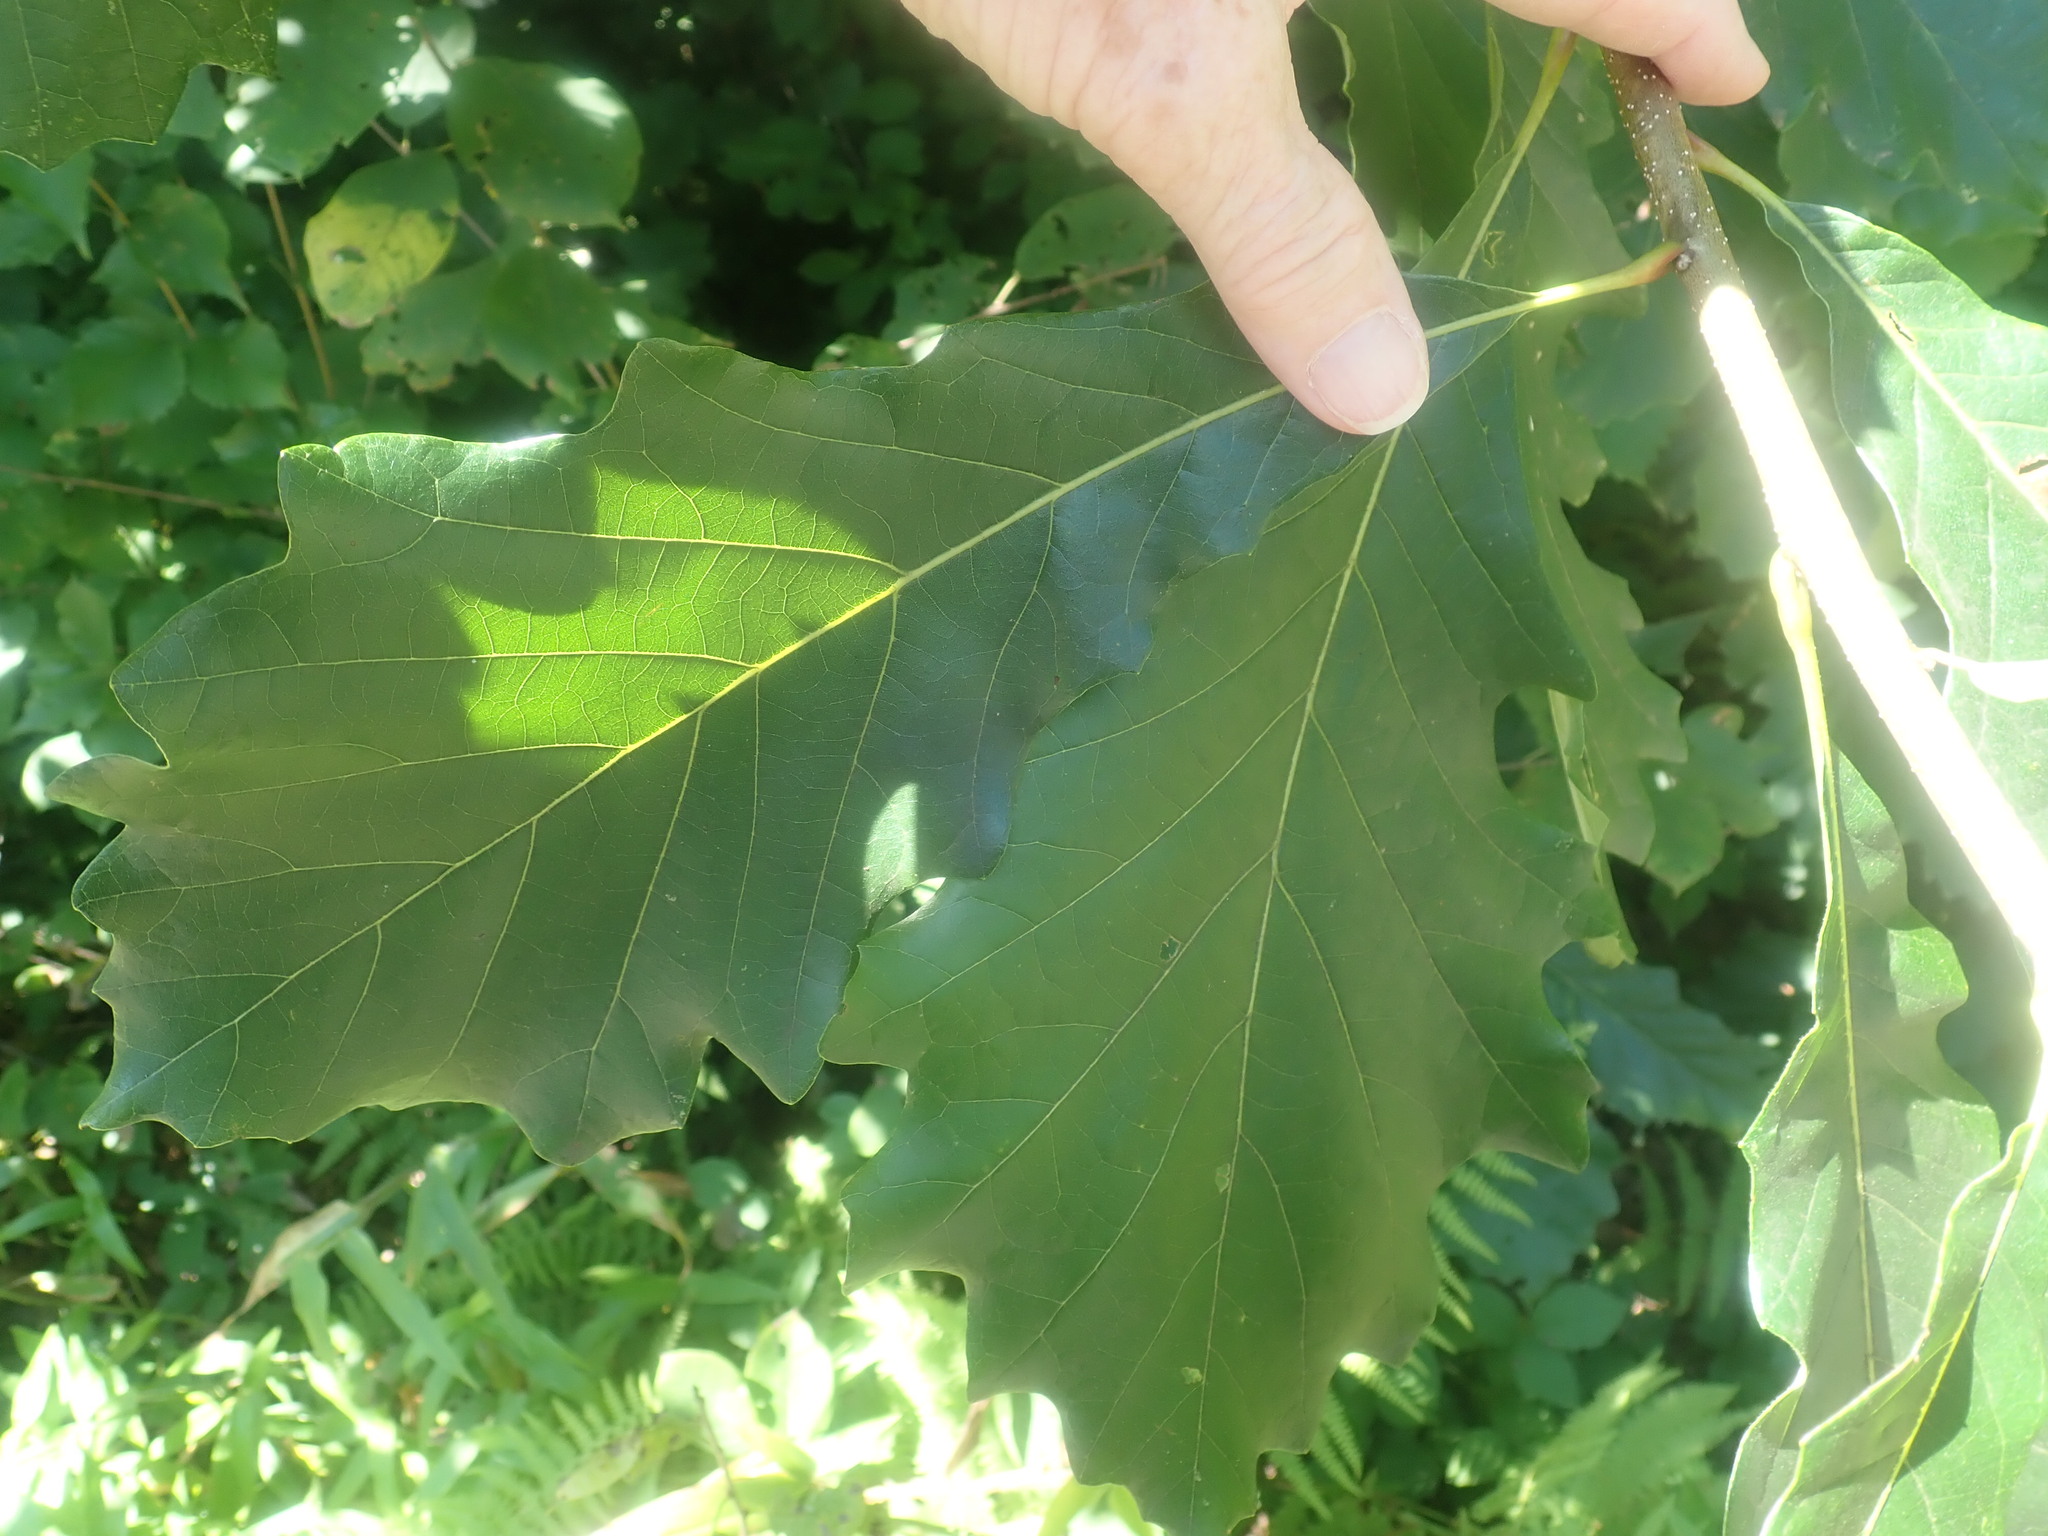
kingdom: Plantae
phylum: Tracheophyta
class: Magnoliopsida
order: Fagales
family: Fagaceae
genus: Quercus
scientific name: Quercus bicolor
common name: Swamp white oak
